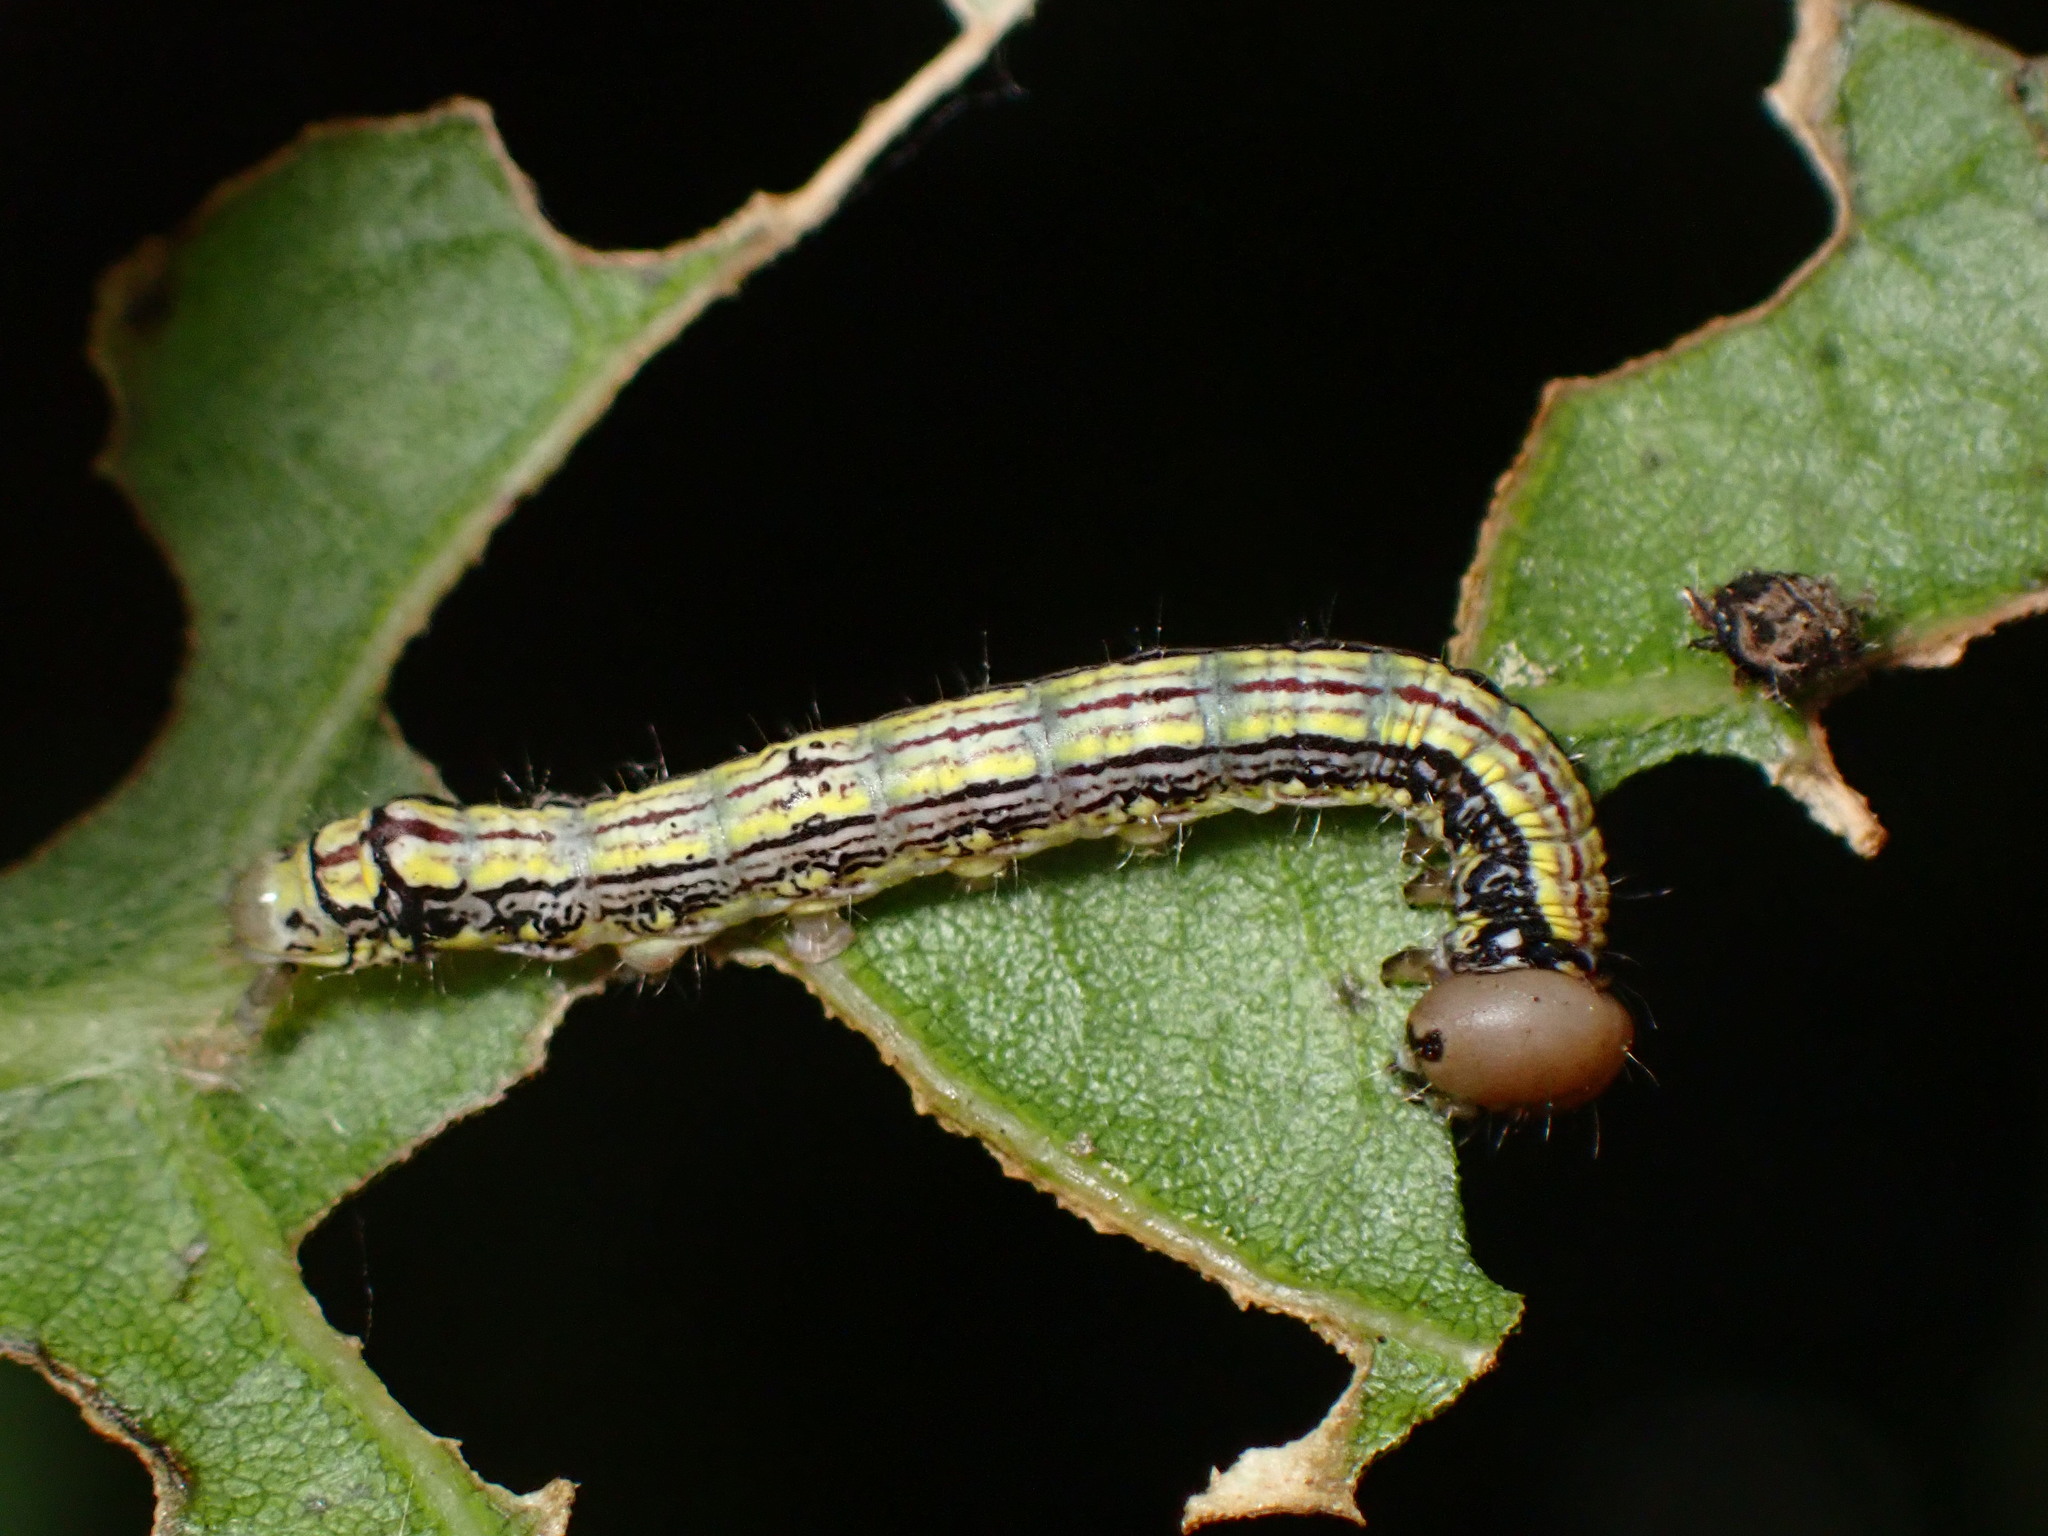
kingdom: Animalia
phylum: Arthropoda
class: Insecta
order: Lepidoptera
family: Notodontidae
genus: Phryganidia
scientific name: Phryganidia californica
